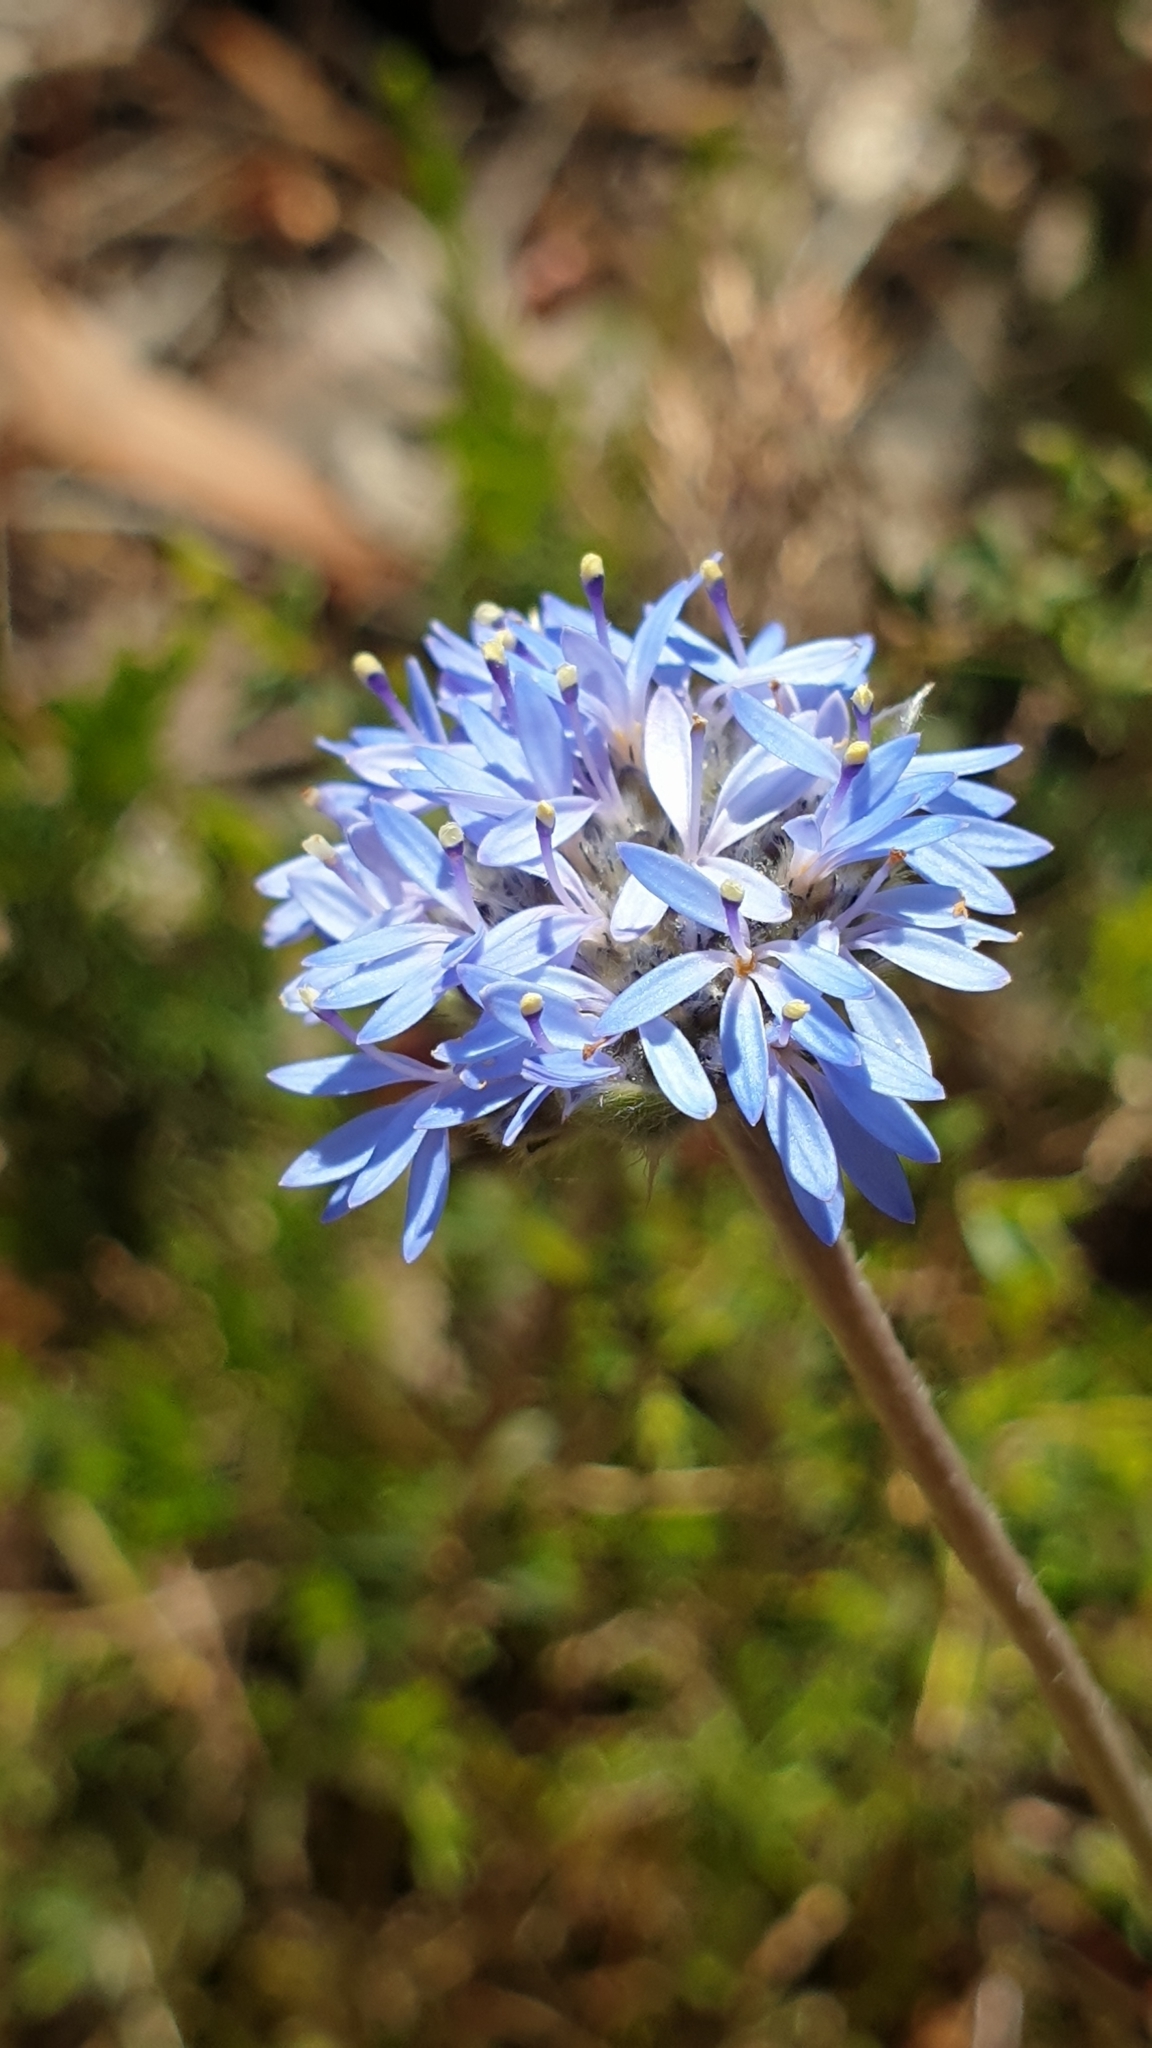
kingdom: Plantae
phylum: Tracheophyta
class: Magnoliopsida
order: Asterales
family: Goodeniaceae
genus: Brunonia
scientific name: Brunonia australis
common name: Blue pincushion
